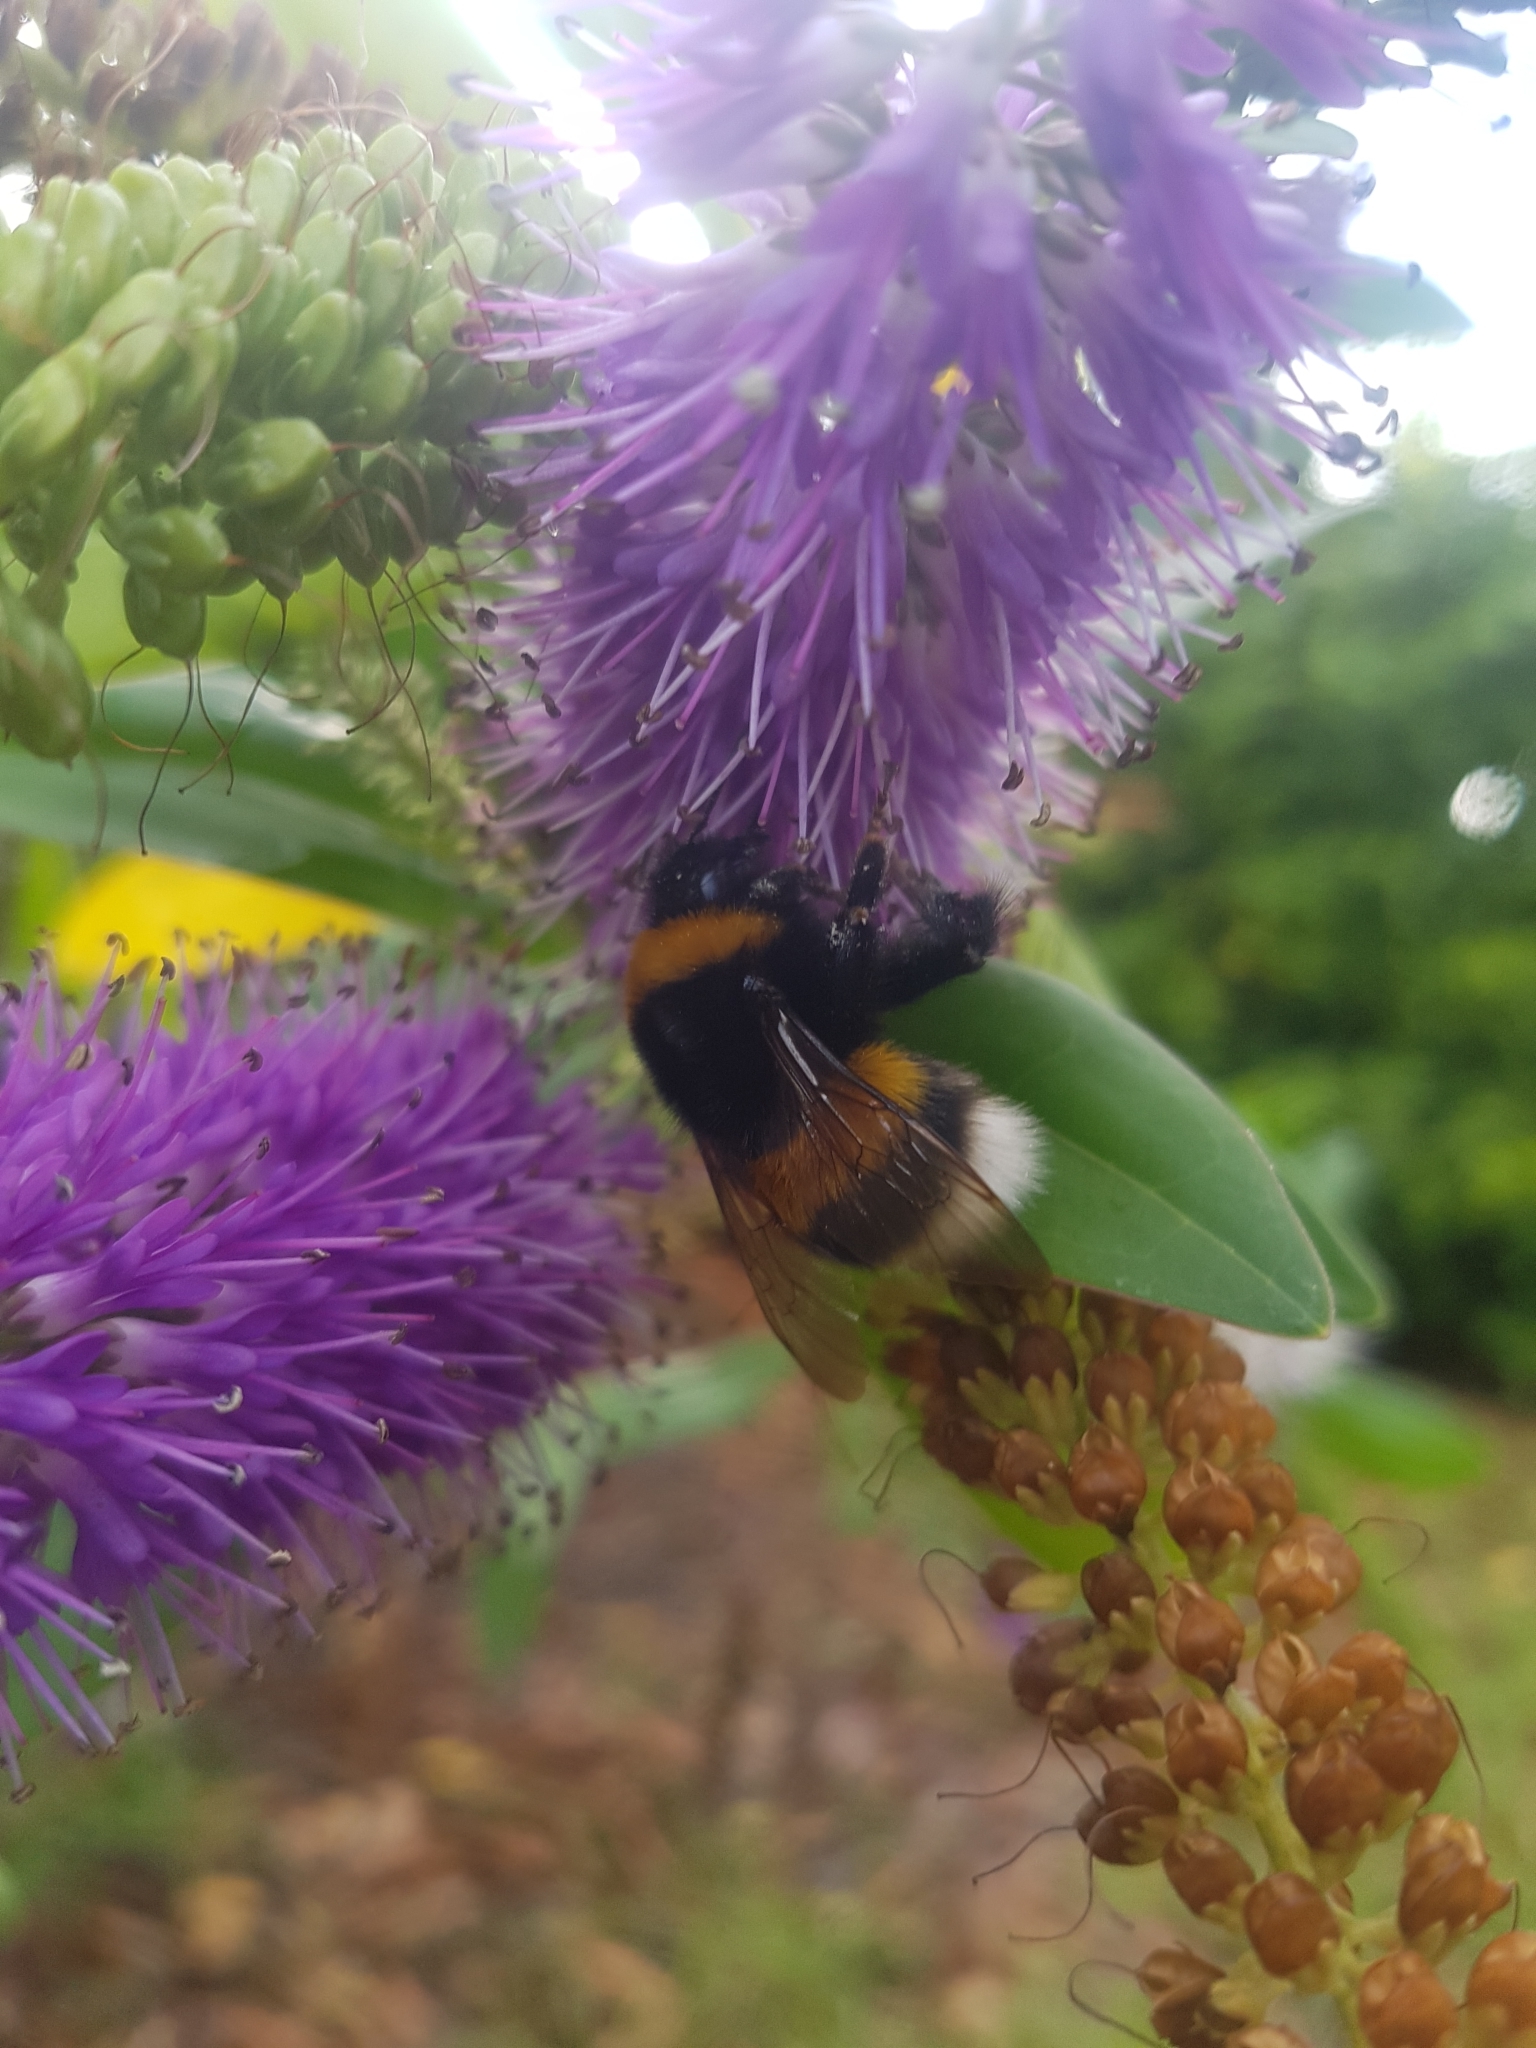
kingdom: Animalia
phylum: Arthropoda
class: Insecta
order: Hymenoptera
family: Apidae
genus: Bombus
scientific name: Bombus terrestris
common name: Buff-tailed bumblebee
